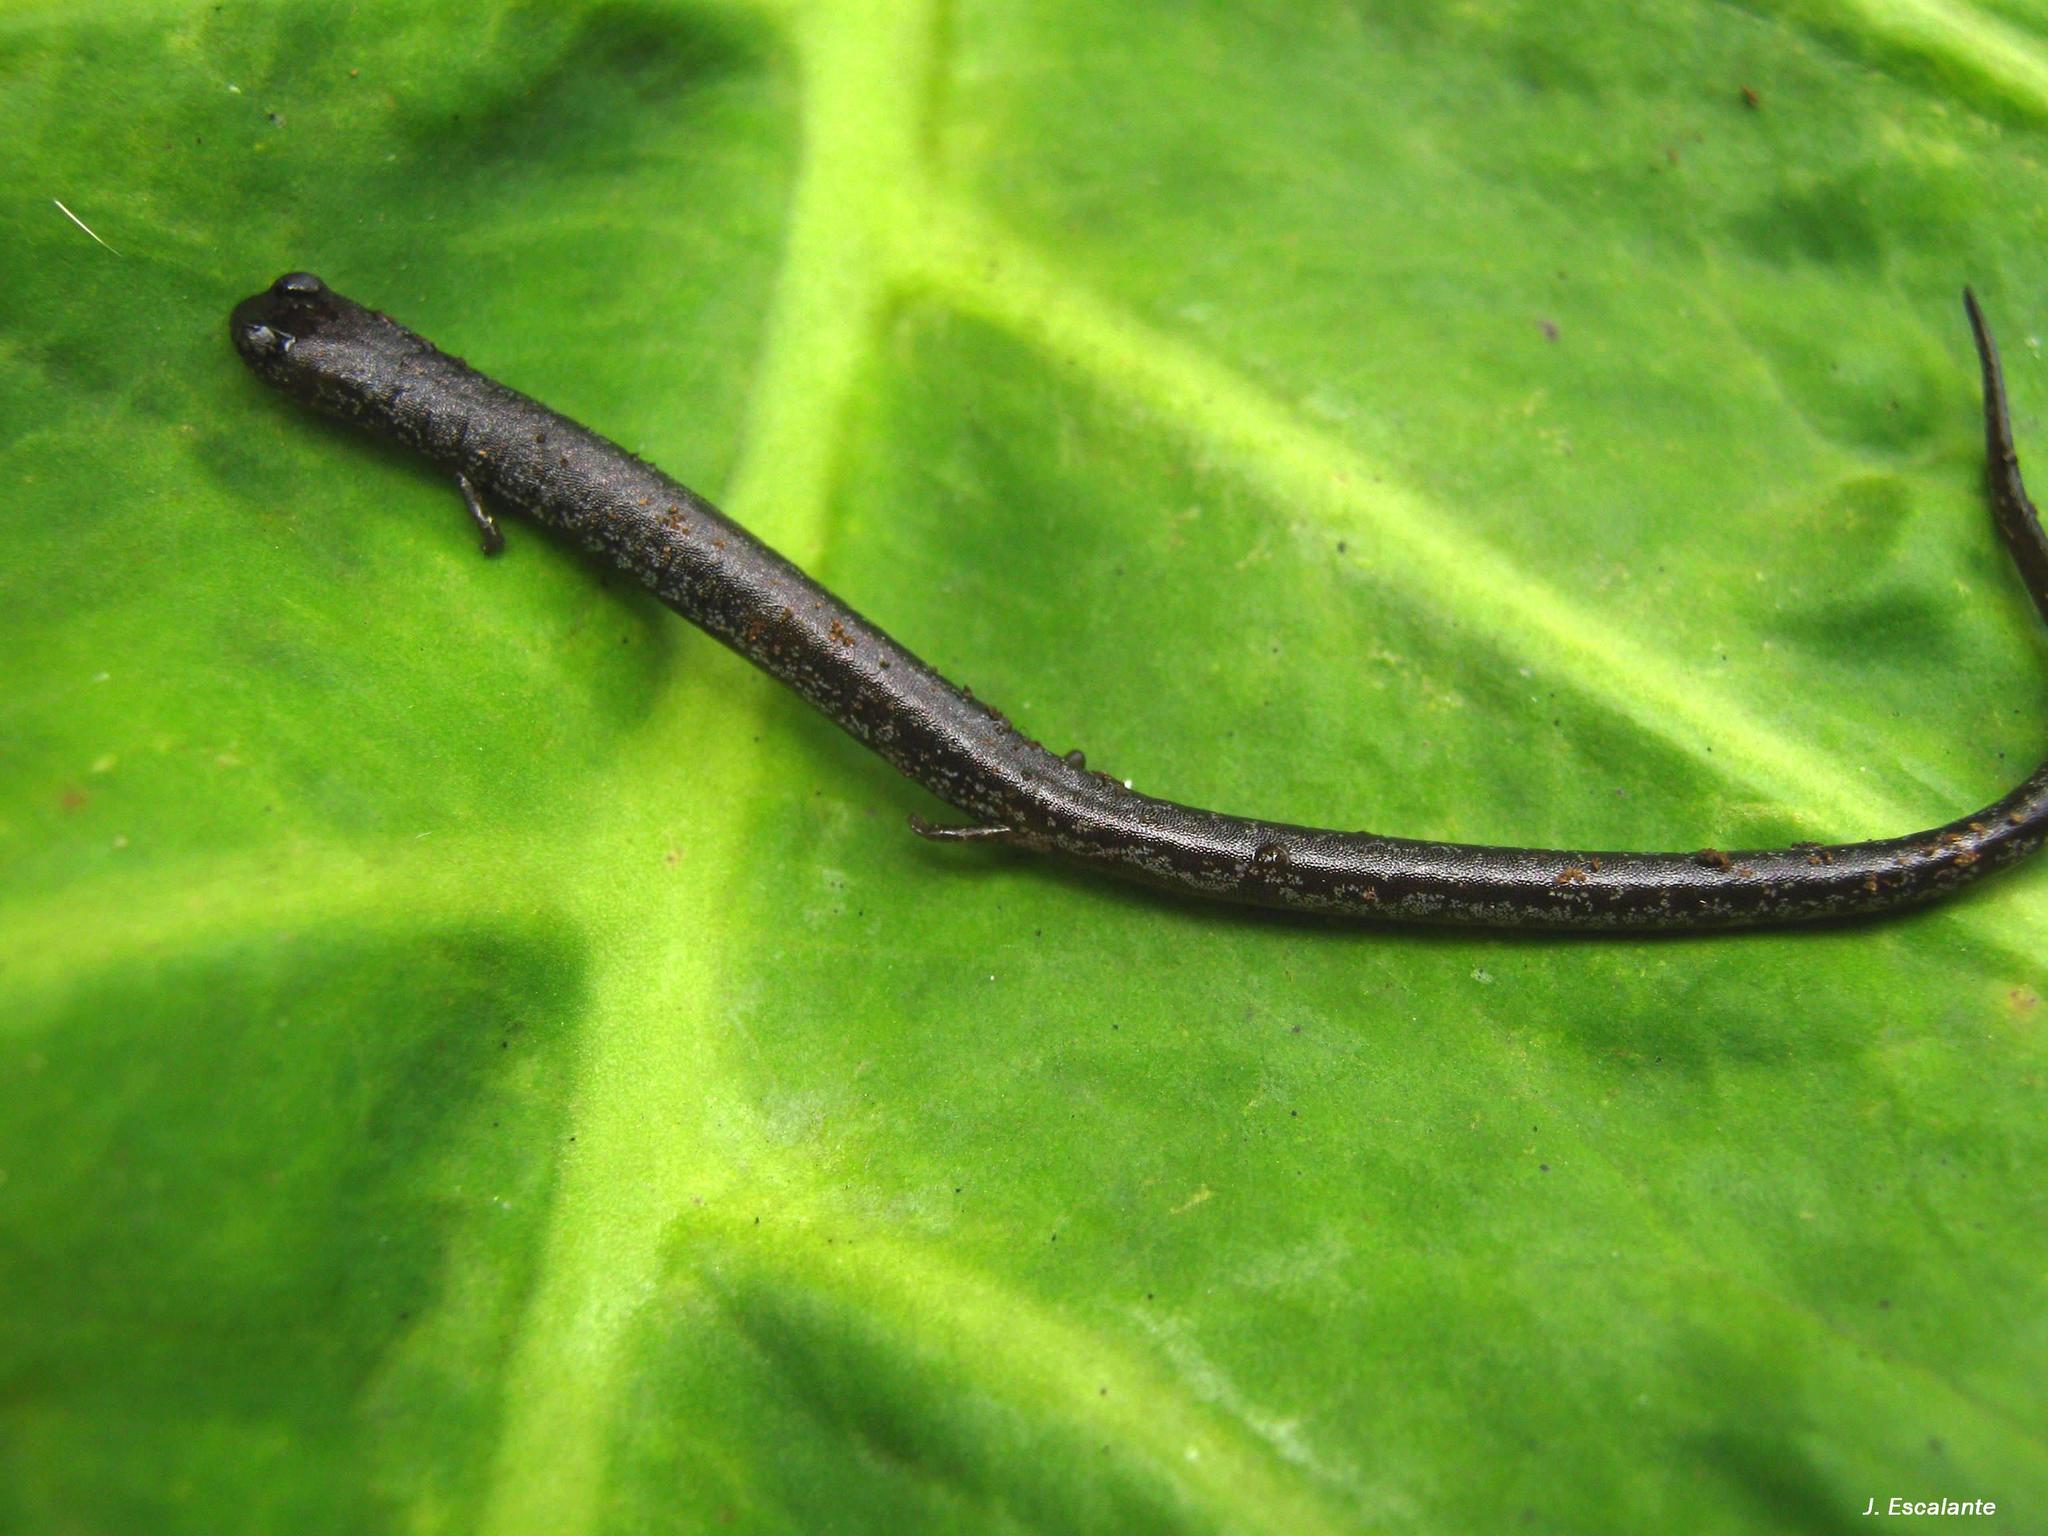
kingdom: Animalia
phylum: Chordata
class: Amphibia
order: Caudata
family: Plethodontidae
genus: Pseudoeurycea
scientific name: Pseudoeurycea orchimelas
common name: San martin worm salamander
